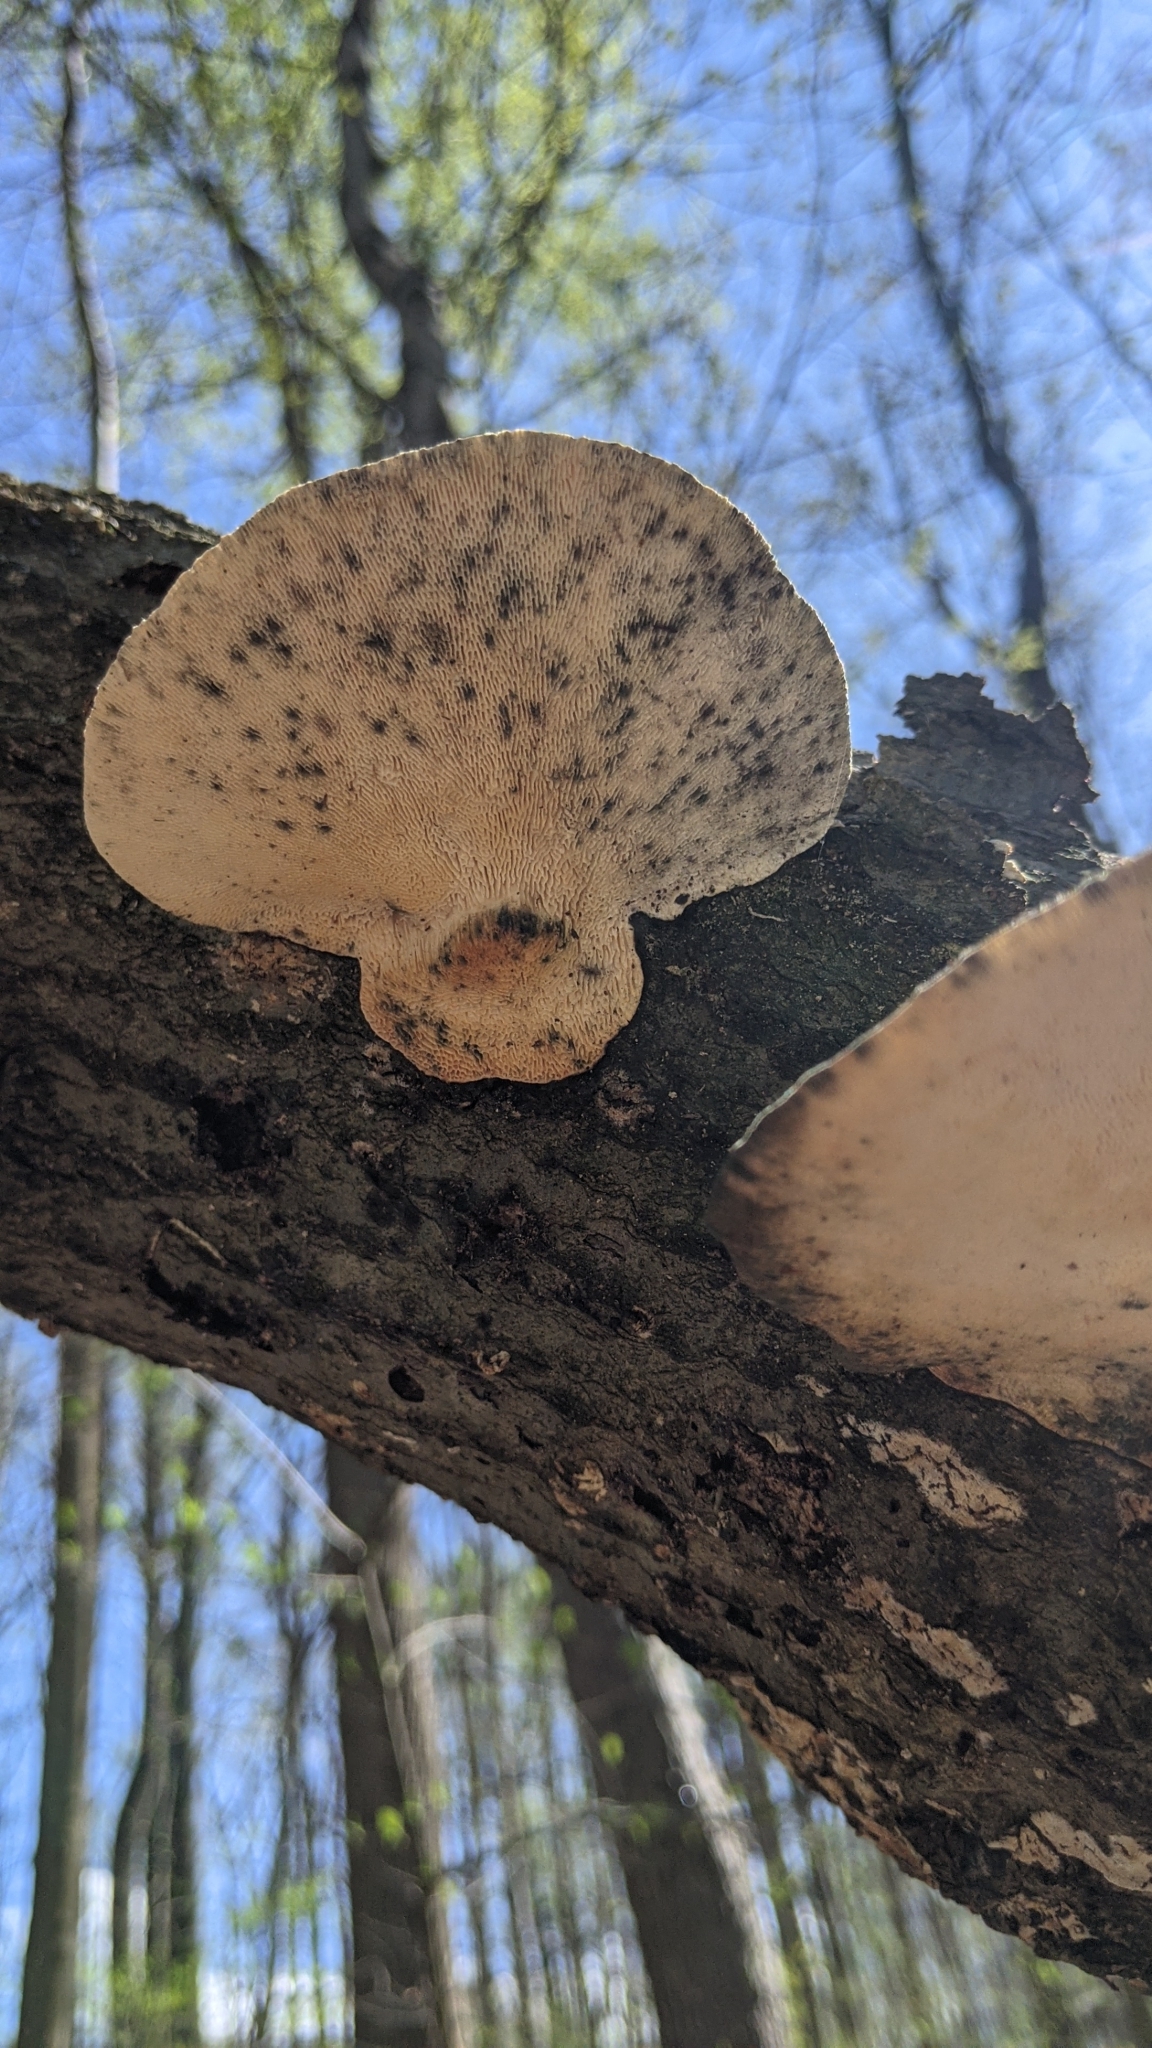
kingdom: Fungi
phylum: Basidiomycota
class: Agaricomycetes
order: Polyporales
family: Polyporaceae
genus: Trametes
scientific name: Trametes gibbosa
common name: Lumpy bracket
